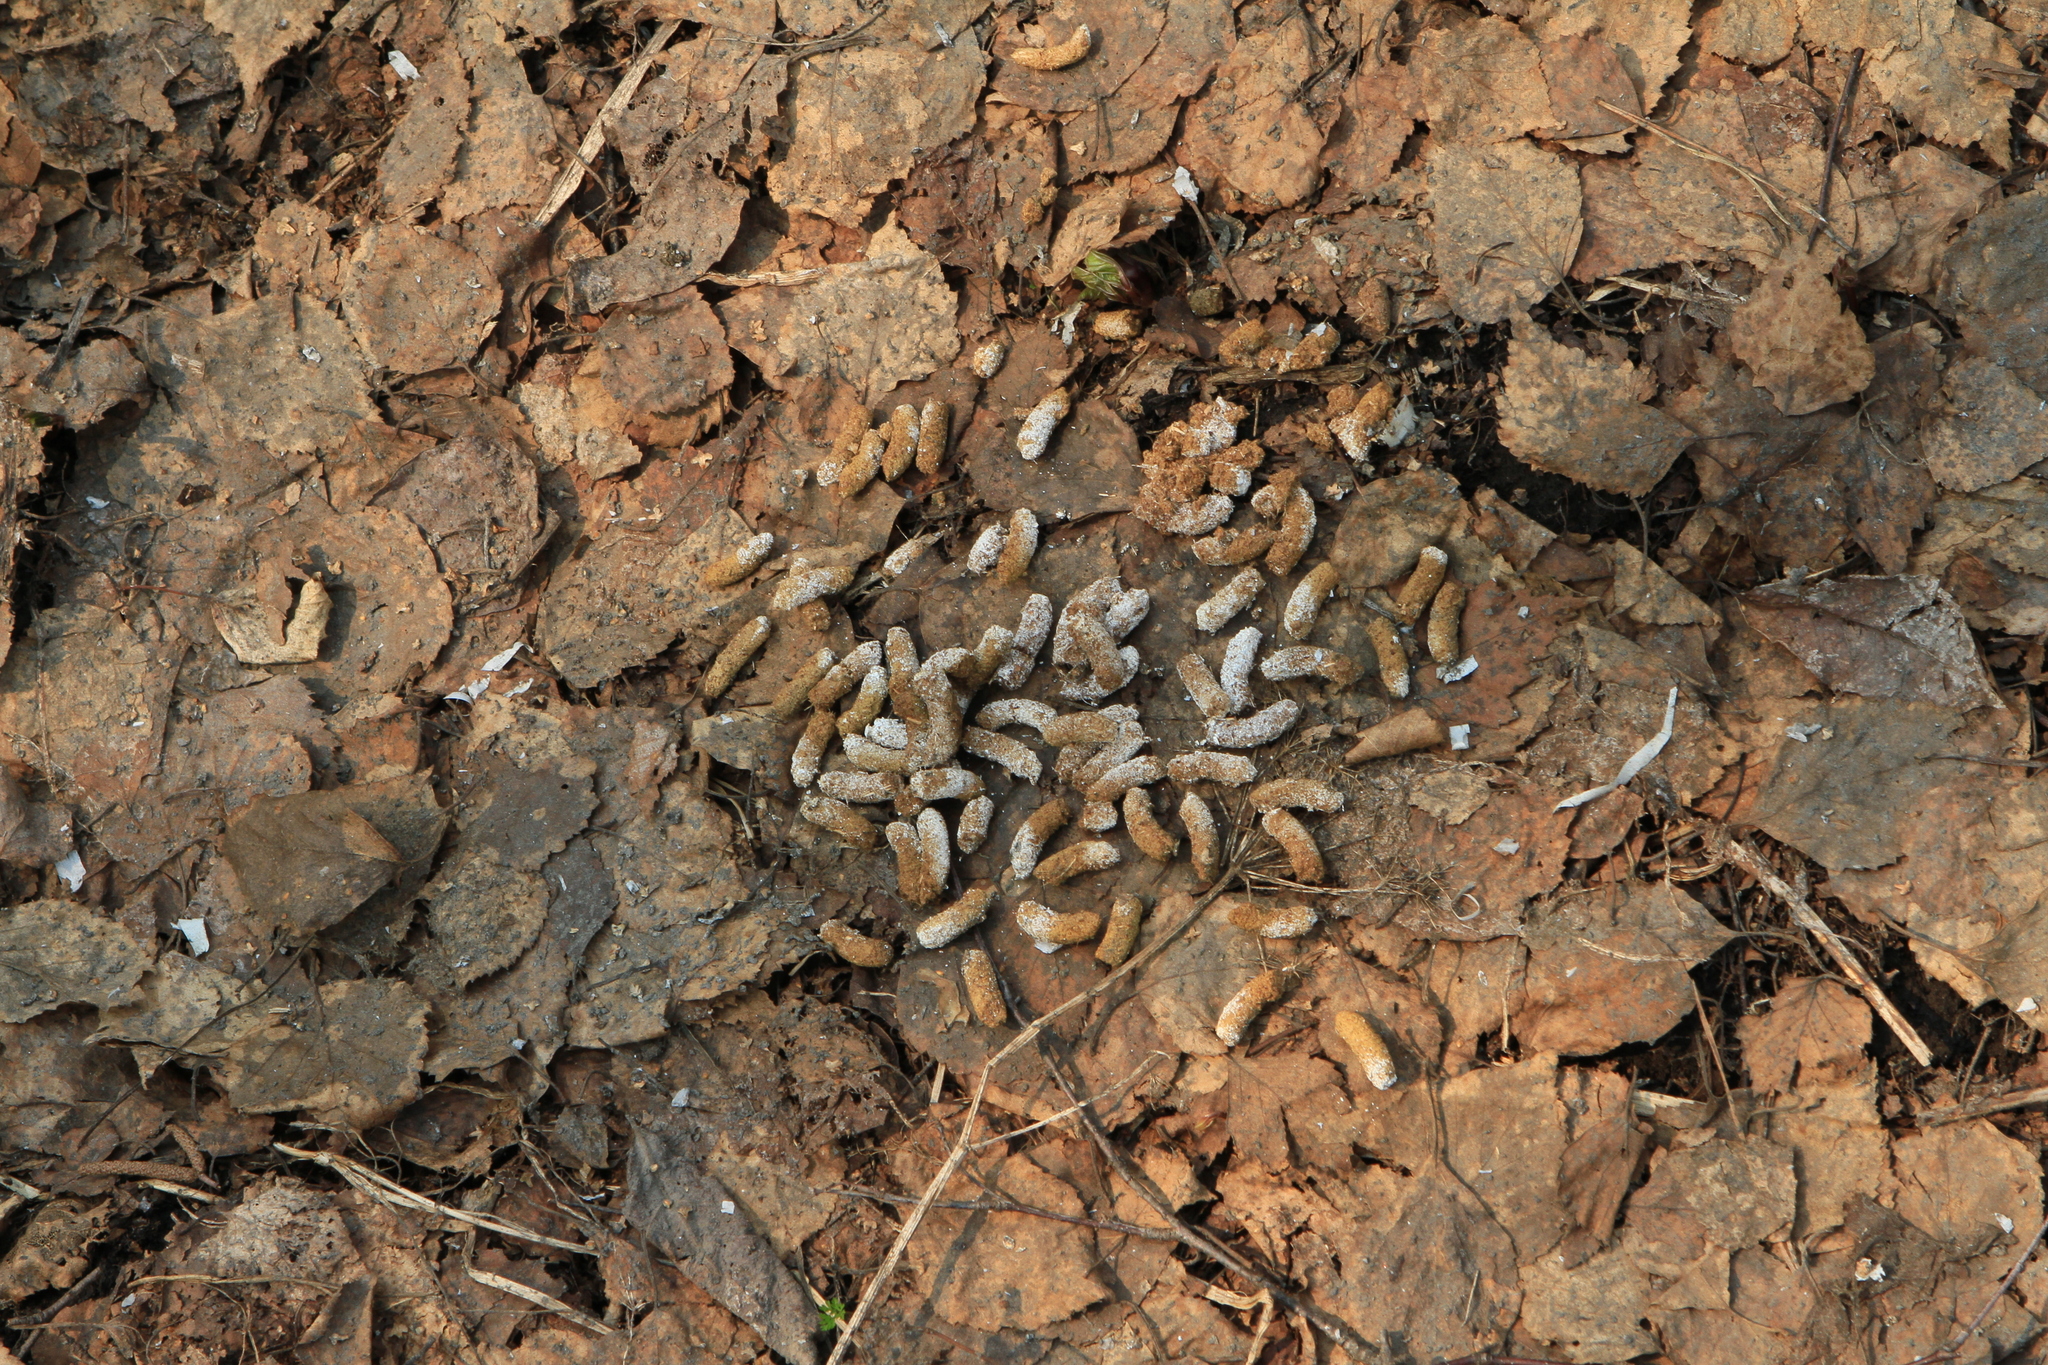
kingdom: Animalia
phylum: Chordata
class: Aves
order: Galliformes
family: Phasianidae
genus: Lyrurus
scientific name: Lyrurus tetrix
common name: Black grouse
